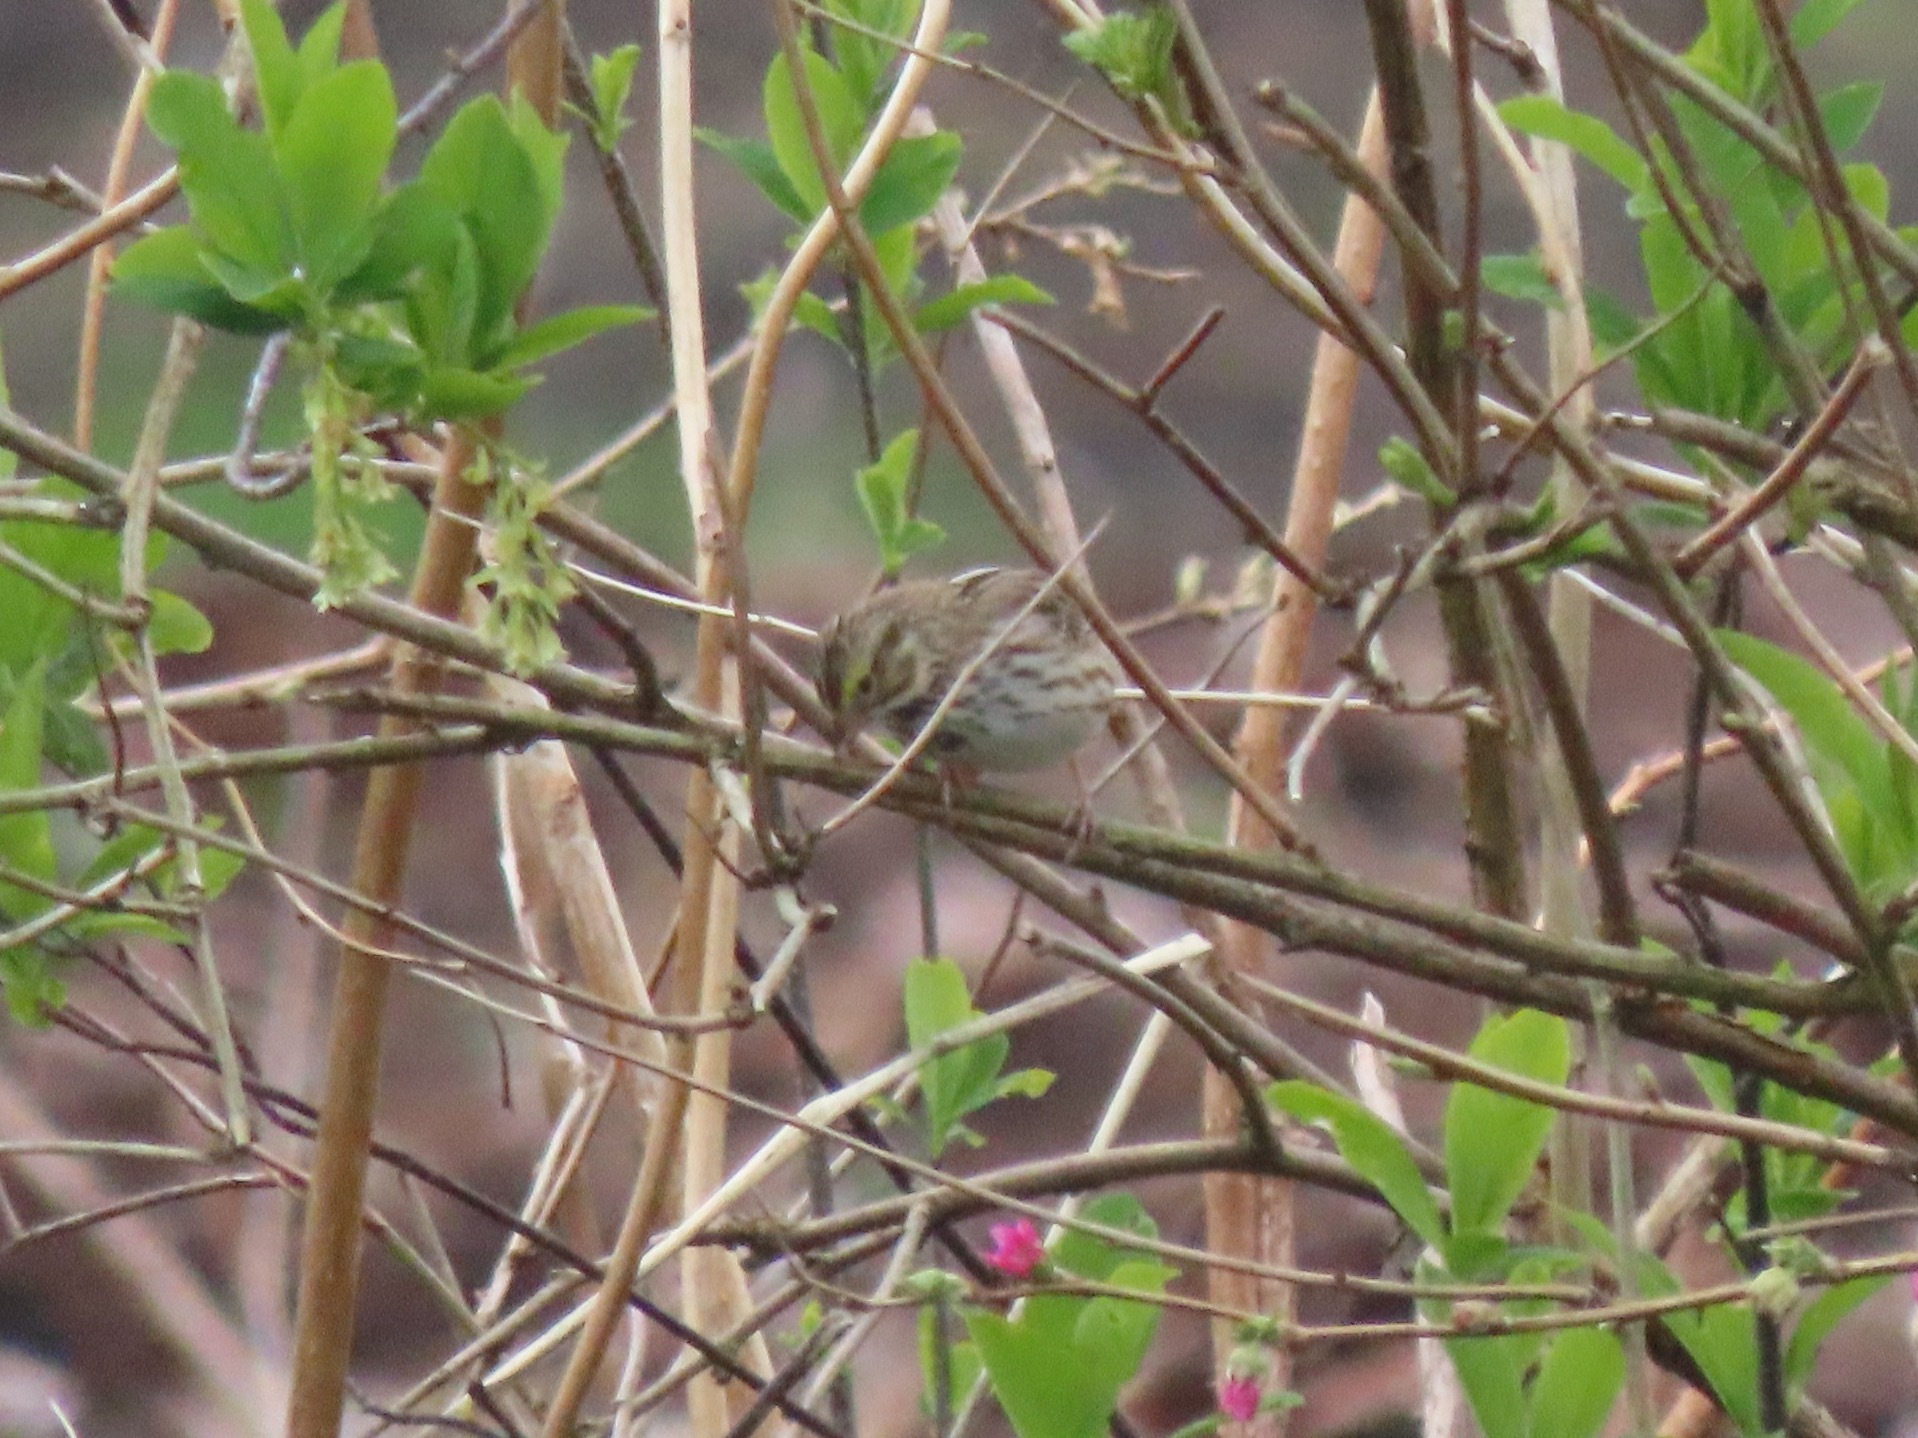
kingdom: Animalia
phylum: Chordata
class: Aves
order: Passeriformes
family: Passerellidae
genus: Passerculus
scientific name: Passerculus sandwichensis
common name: Savannah sparrow
